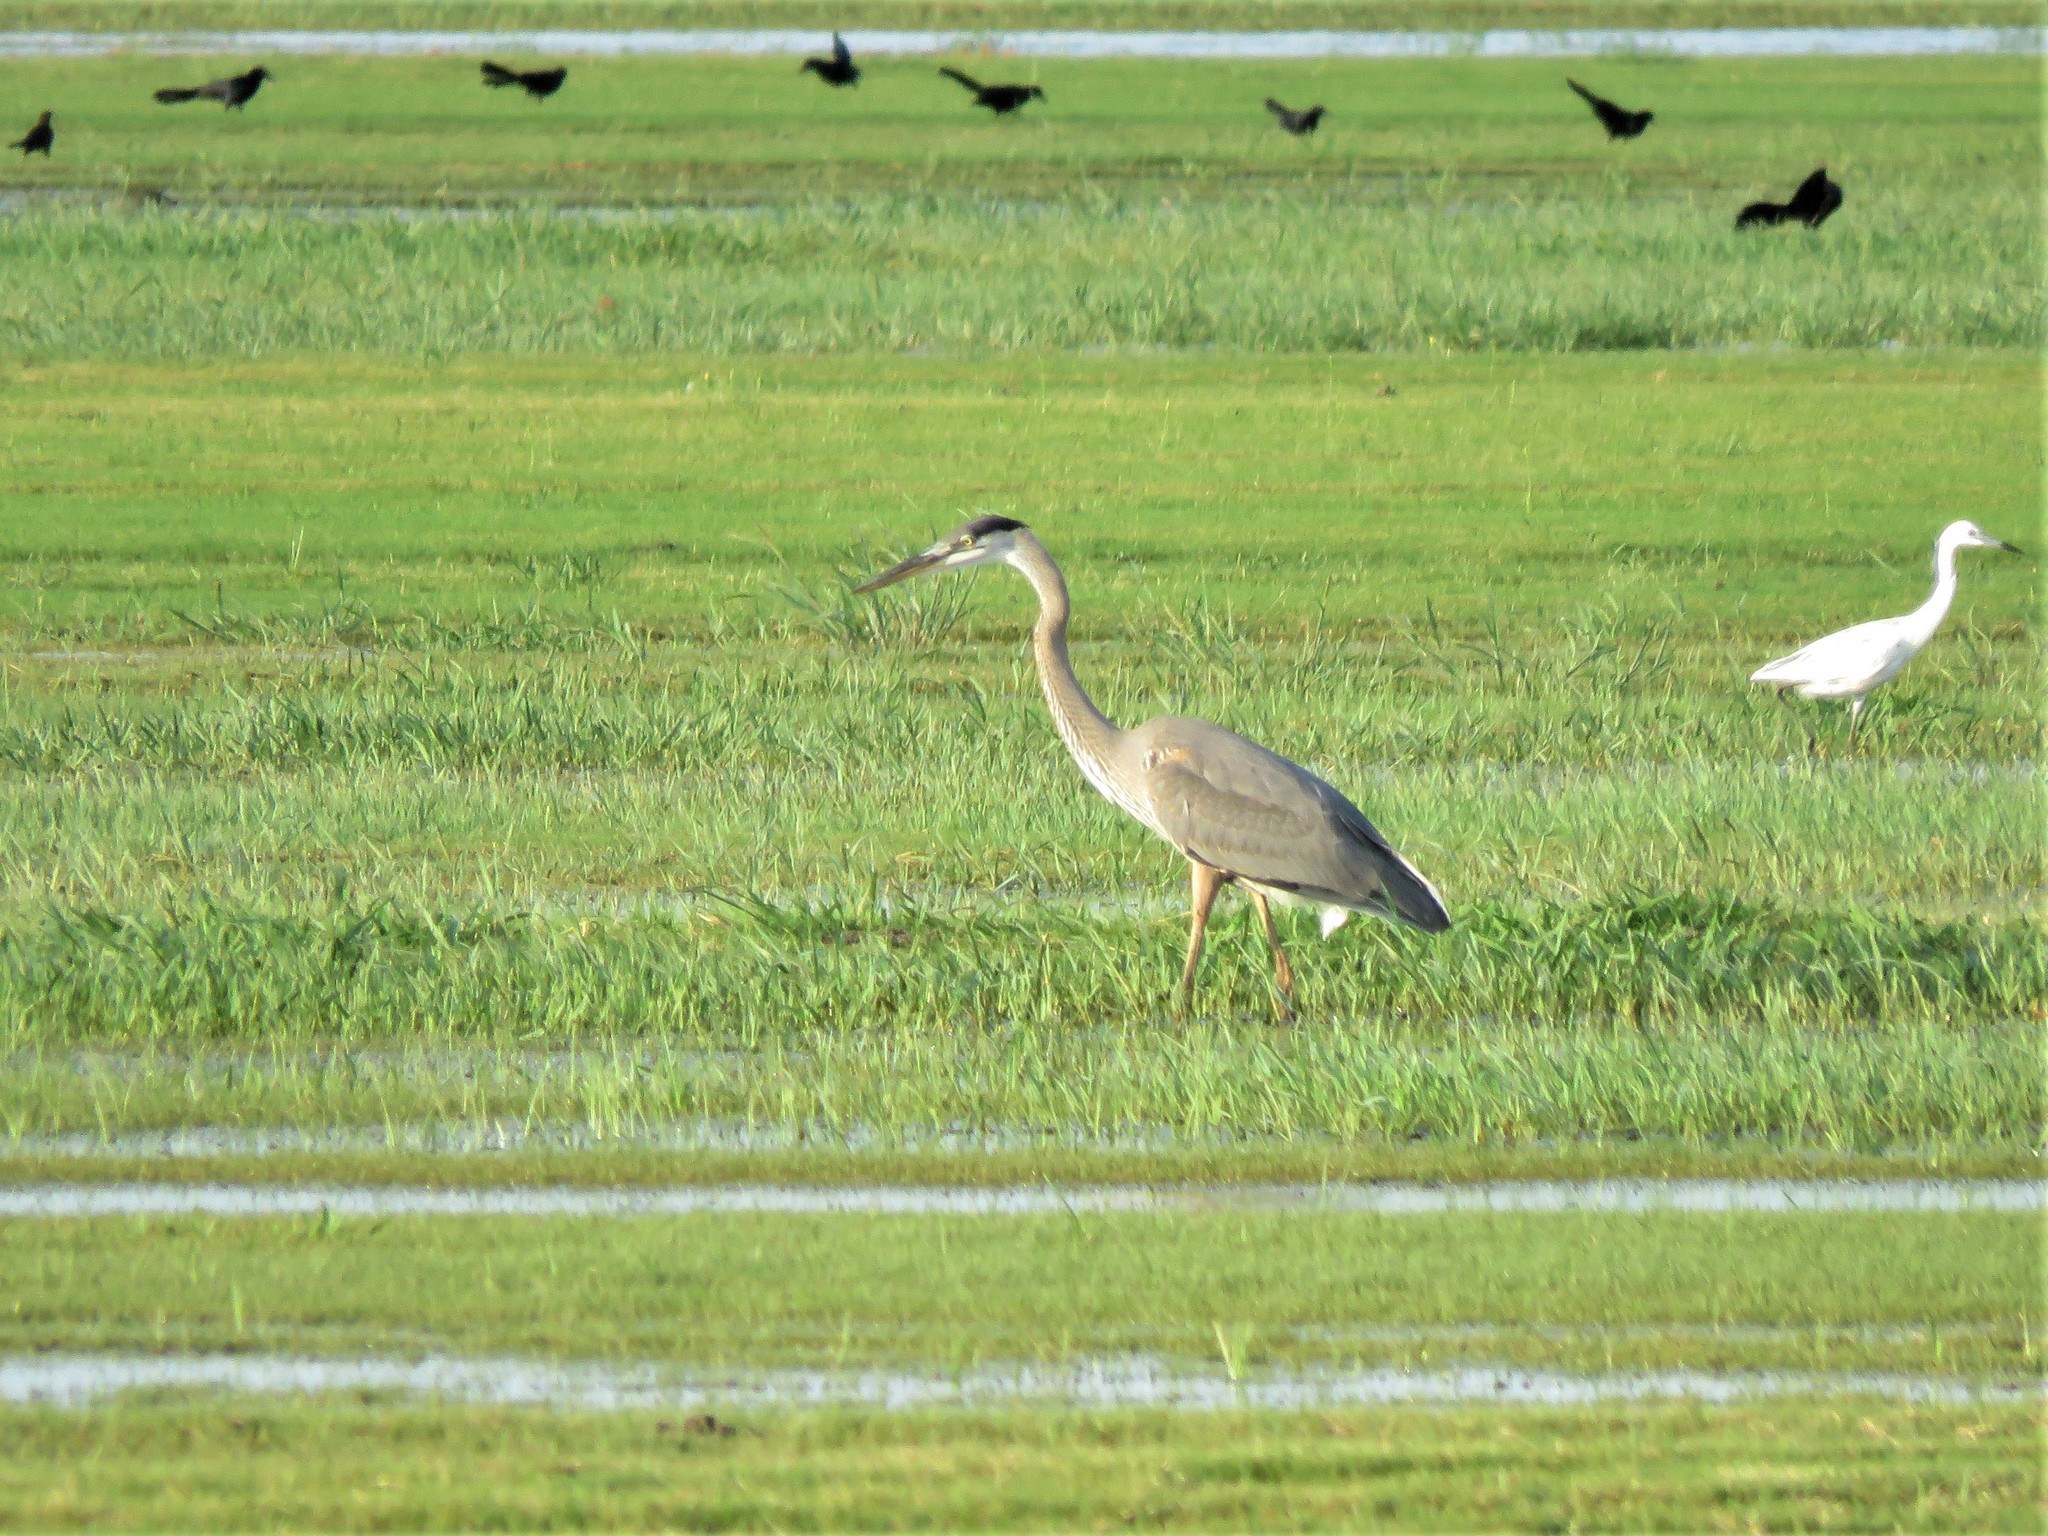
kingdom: Animalia
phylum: Chordata
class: Aves
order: Pelecaniformes
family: Ardeidae
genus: Ardea
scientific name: Ardea herodias
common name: Great blue heron
